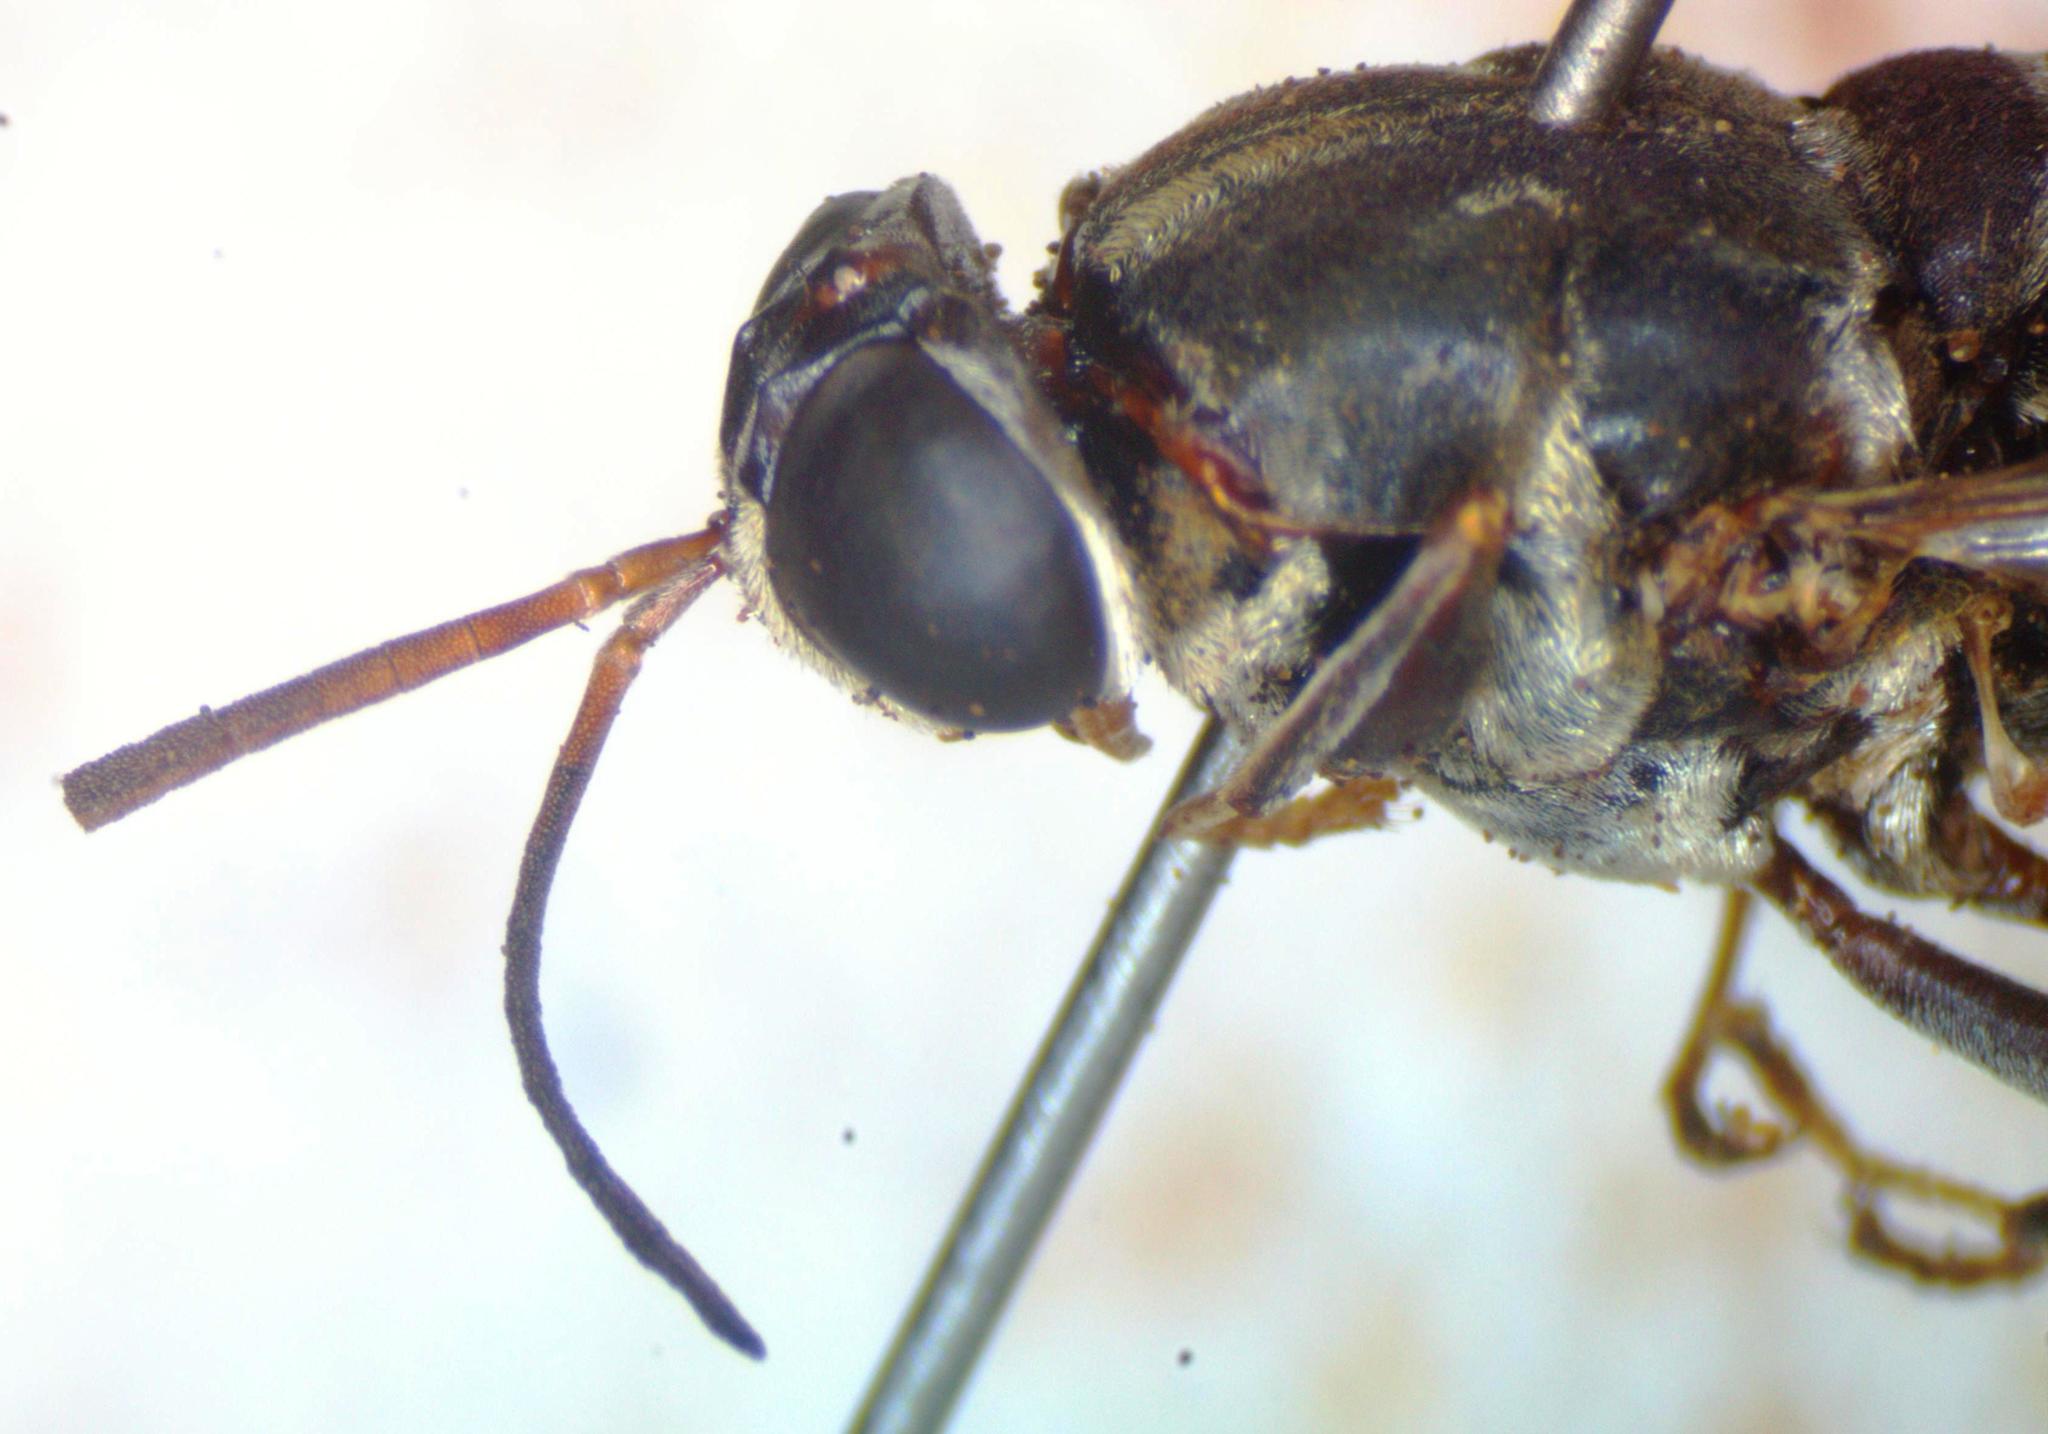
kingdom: Animalia
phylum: Arthropoda
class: Insecta
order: Diptera
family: Stratiomyidae
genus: Cyphomyia
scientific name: Cyphomyia albitarsis
